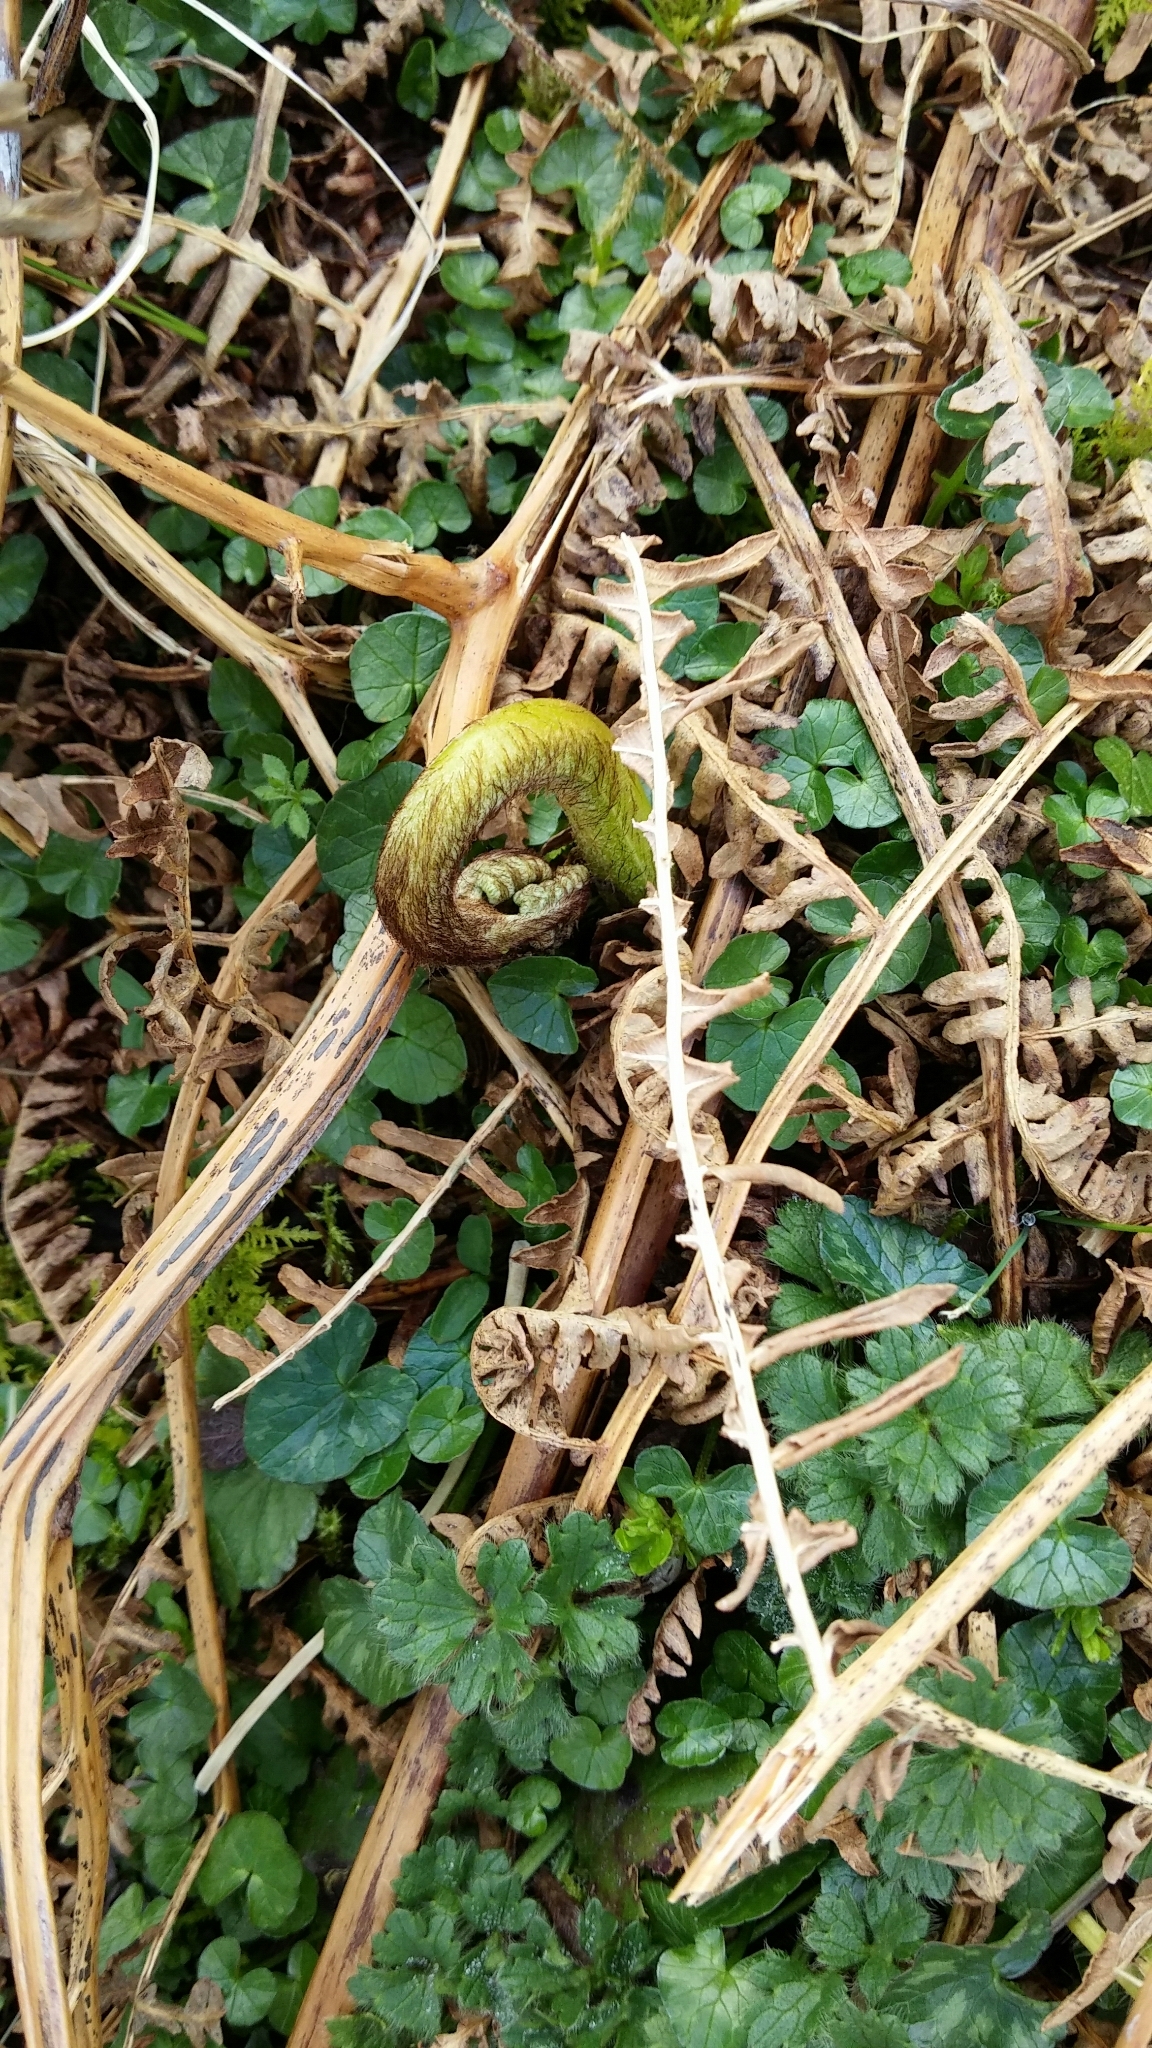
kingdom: Plantae
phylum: Tracheophyta
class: Polypodiopsida
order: Polypodiales
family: Dennstaedtiaceae
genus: Pteridium
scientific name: Pteridium aquilinum
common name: Bracken
